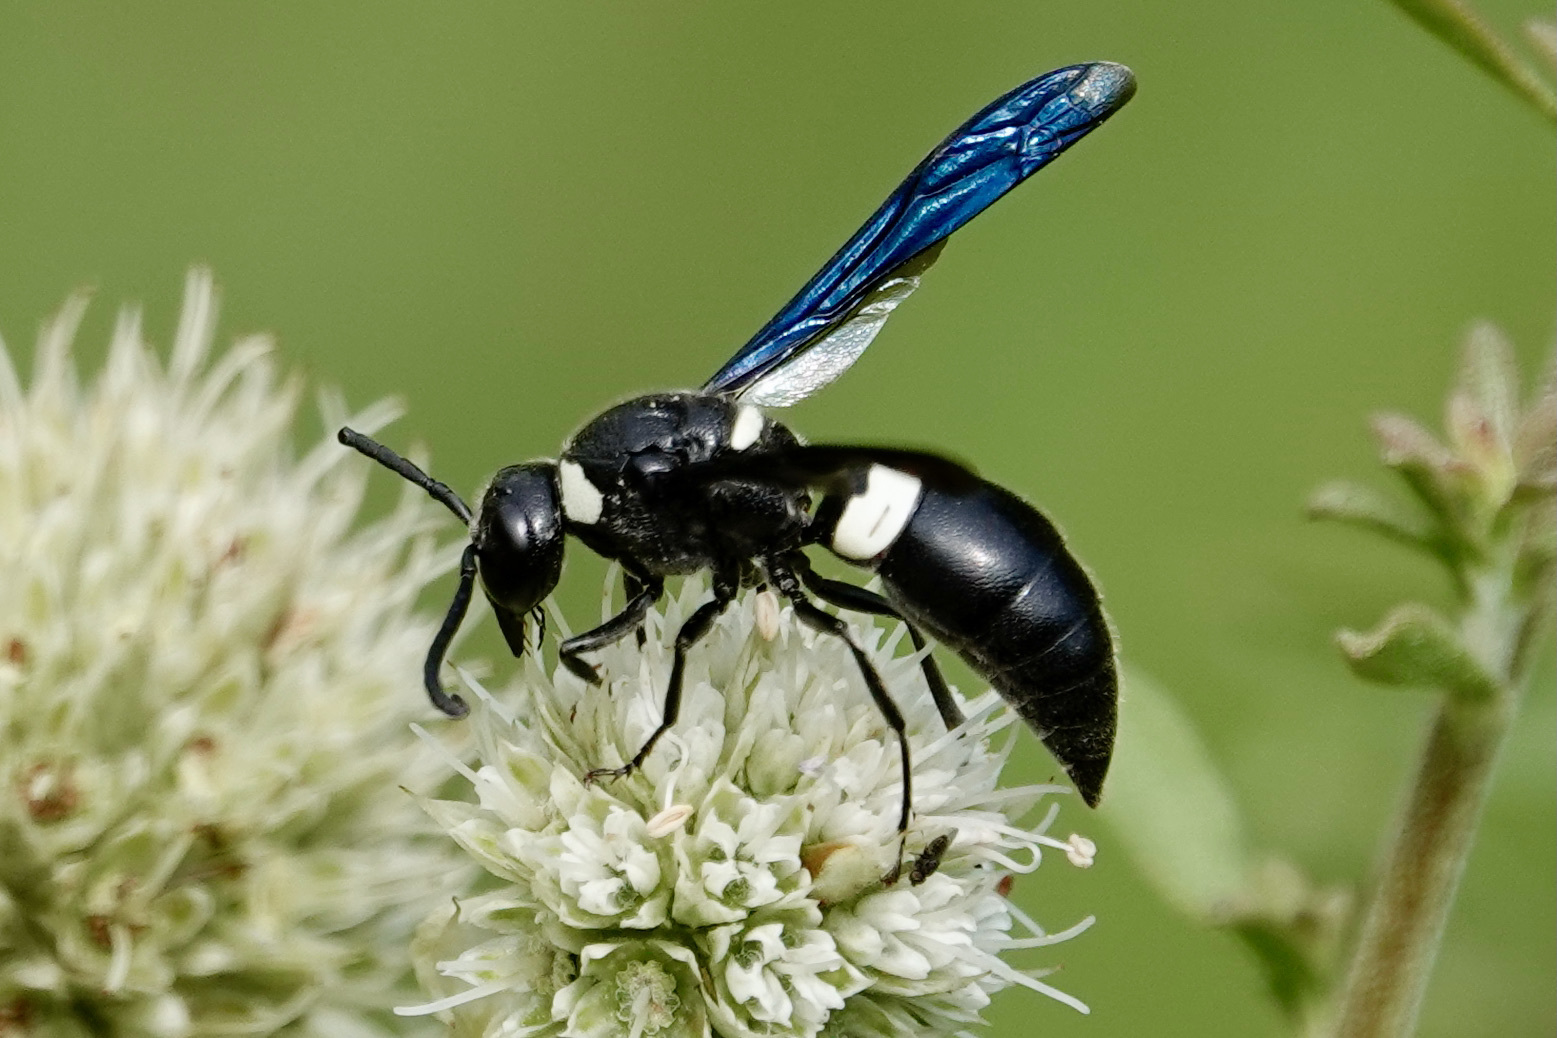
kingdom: Animalia
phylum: Arthropoda
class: Insecta
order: Hymenoptera
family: Eumenidae
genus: Monobia
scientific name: Monobia quadridens
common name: Four-toothed mason wasp
